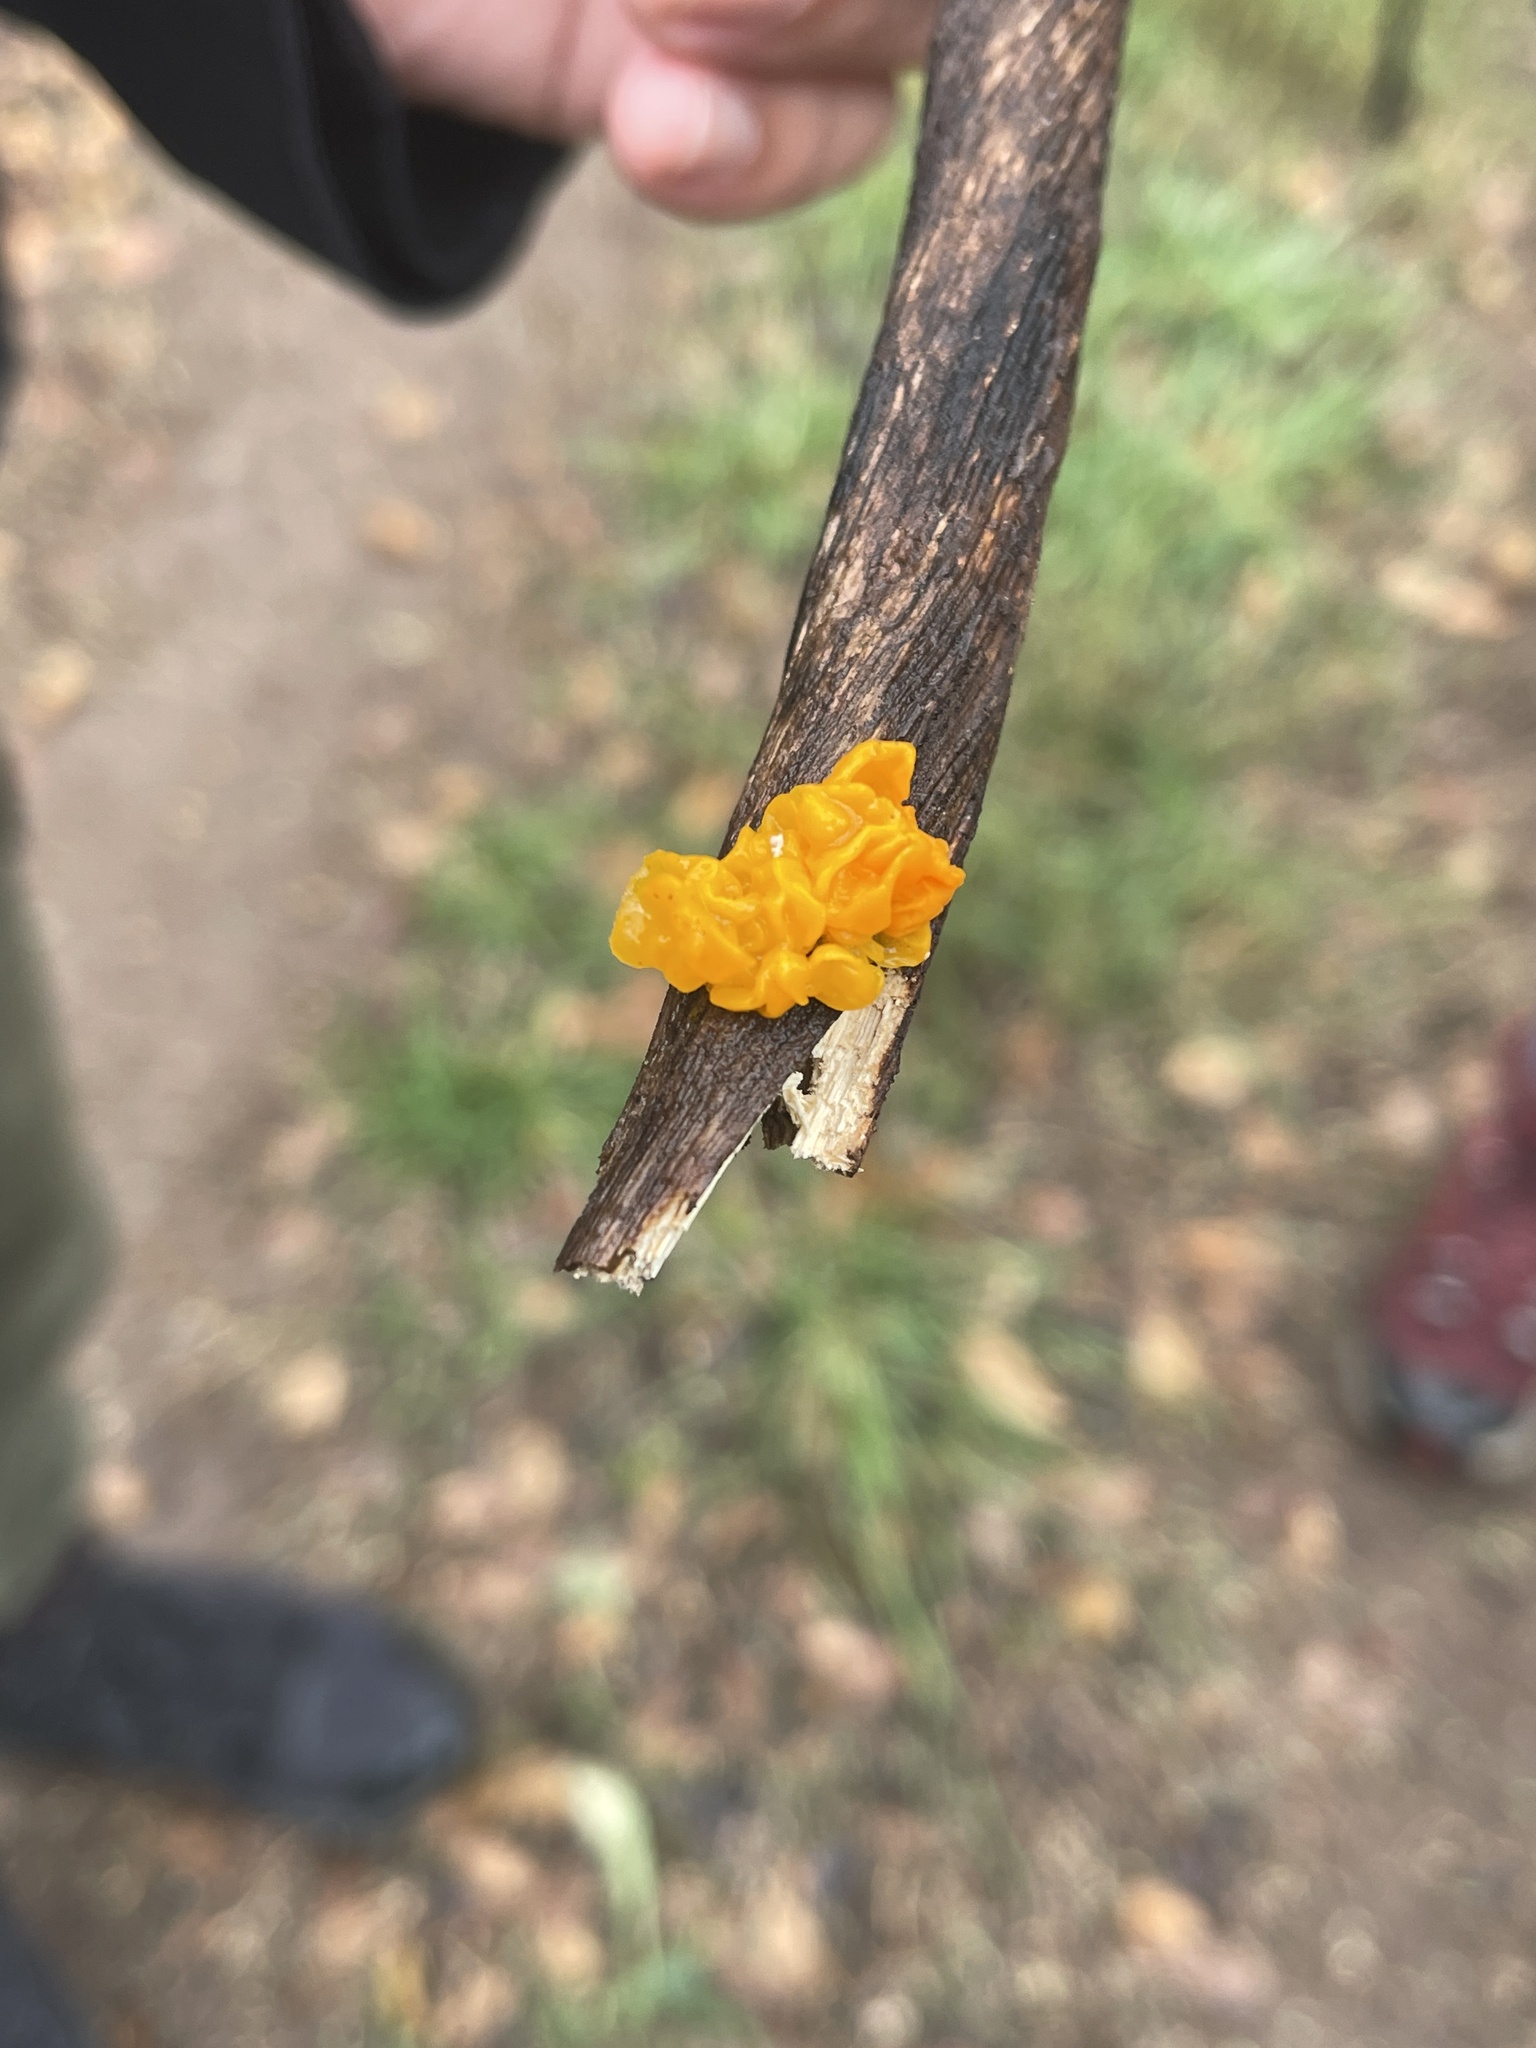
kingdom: Fungi
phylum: Basidiomycota
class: Tremellomycetes
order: Tremellales
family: Tremellaceae
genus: Tremella
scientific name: Tremella mesenterica
